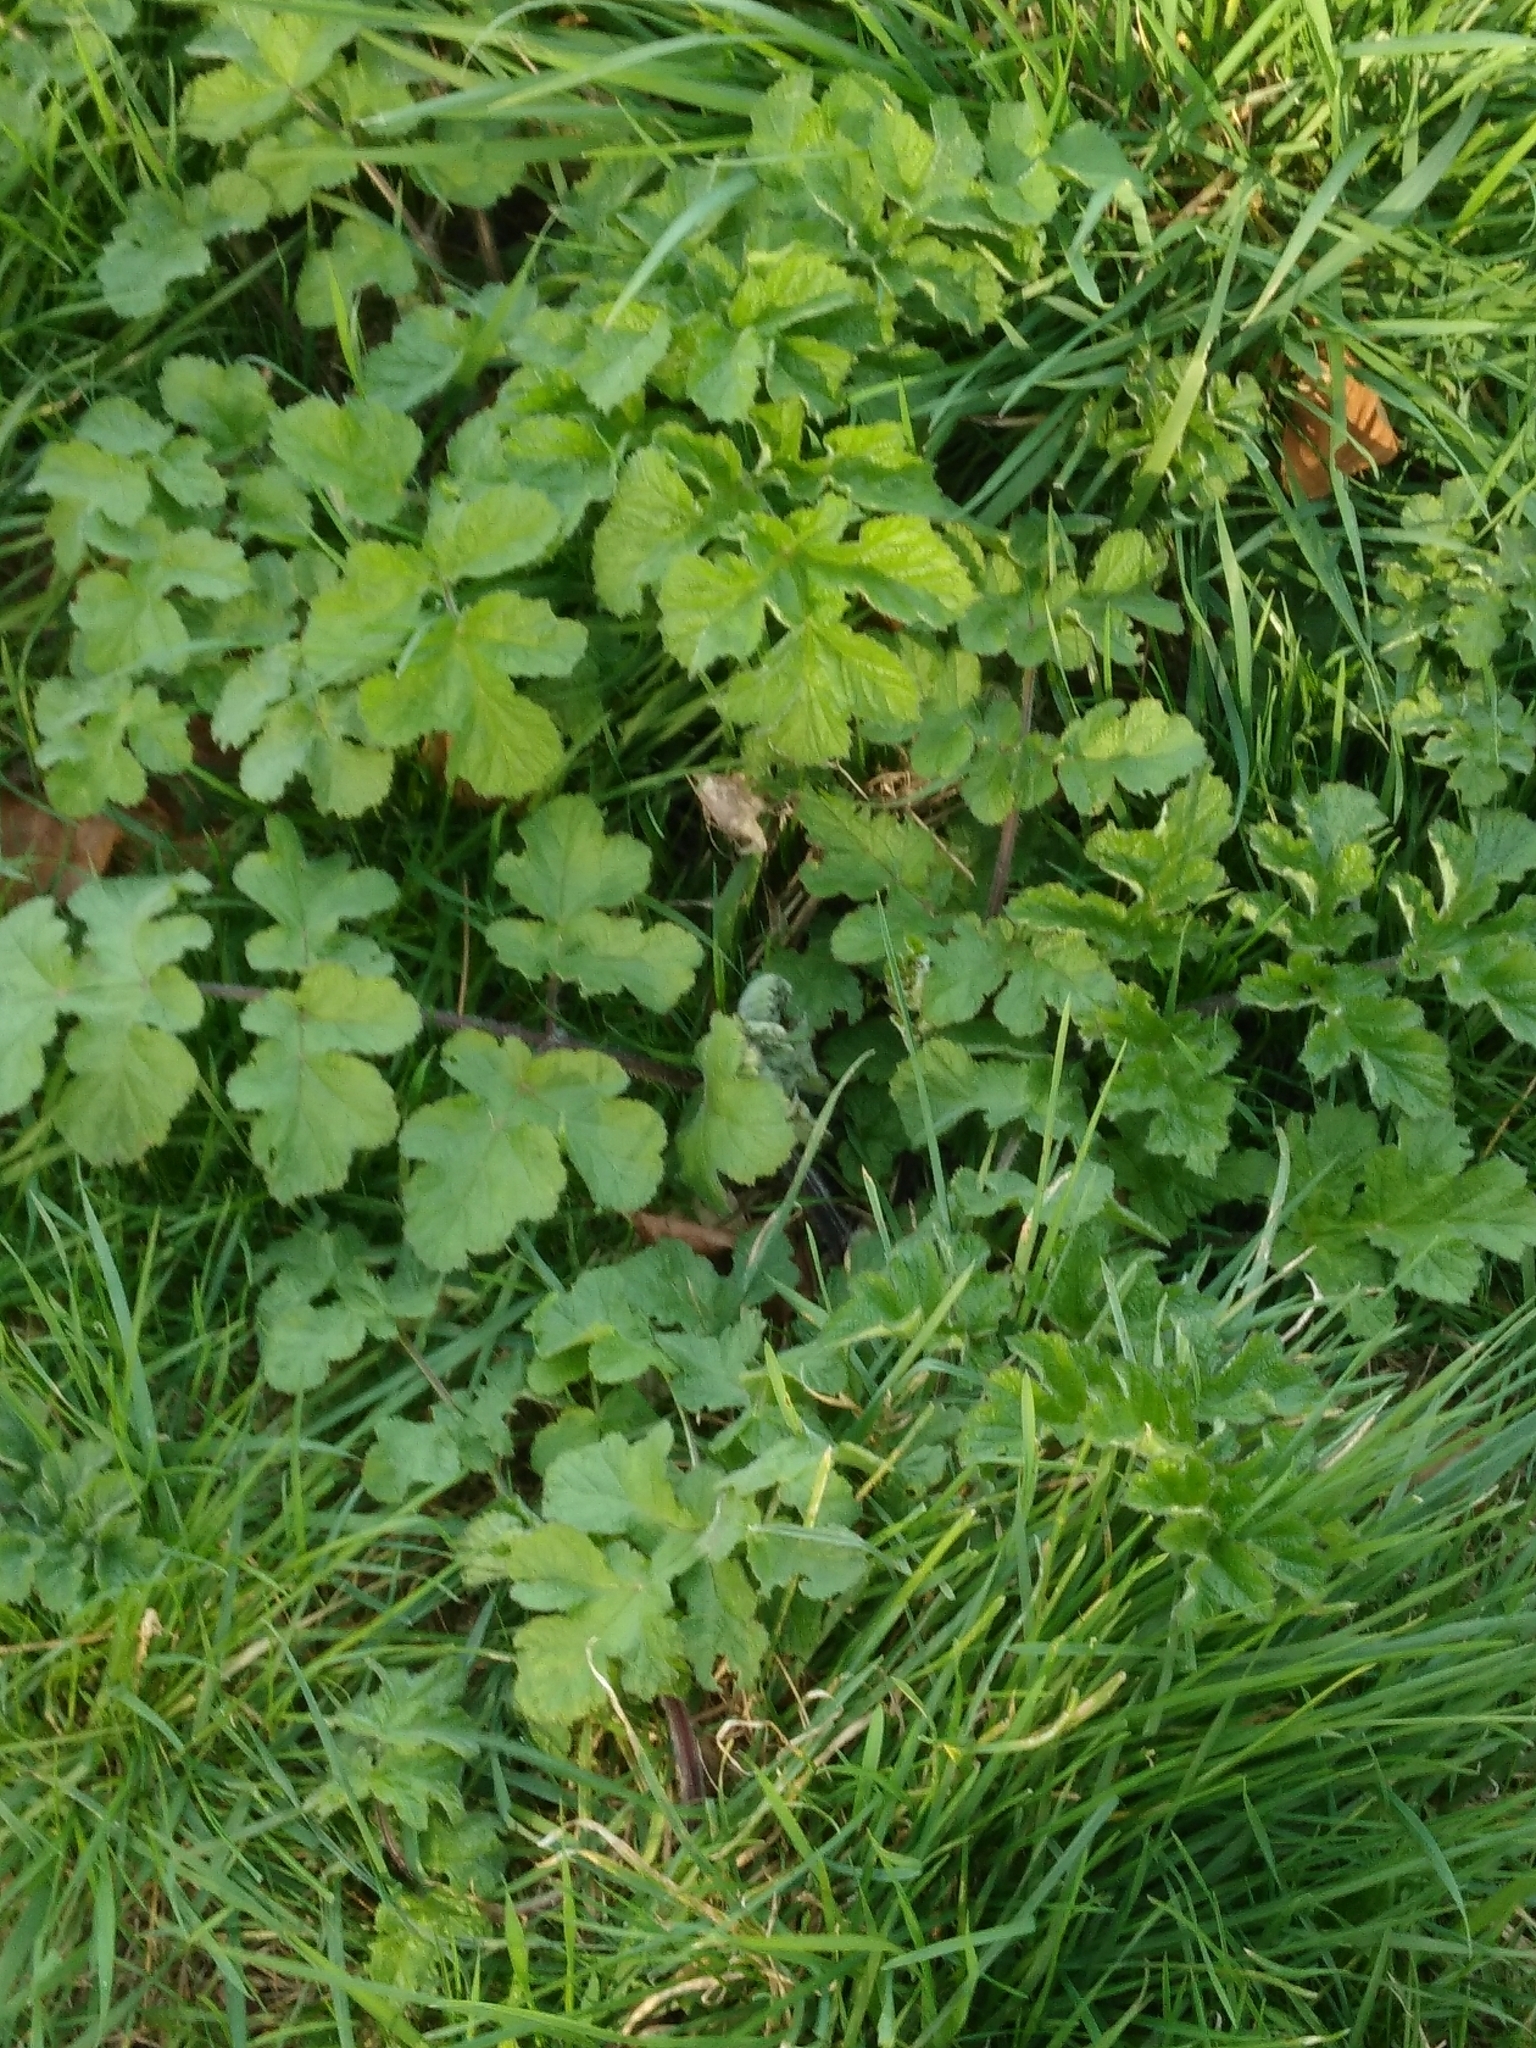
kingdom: Plantae
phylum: Tracheophyta
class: Magnoliopsida
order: Apiales
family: Apiaceae
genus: Heracleum
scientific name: Heracleum sphondylium
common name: Hogweed
